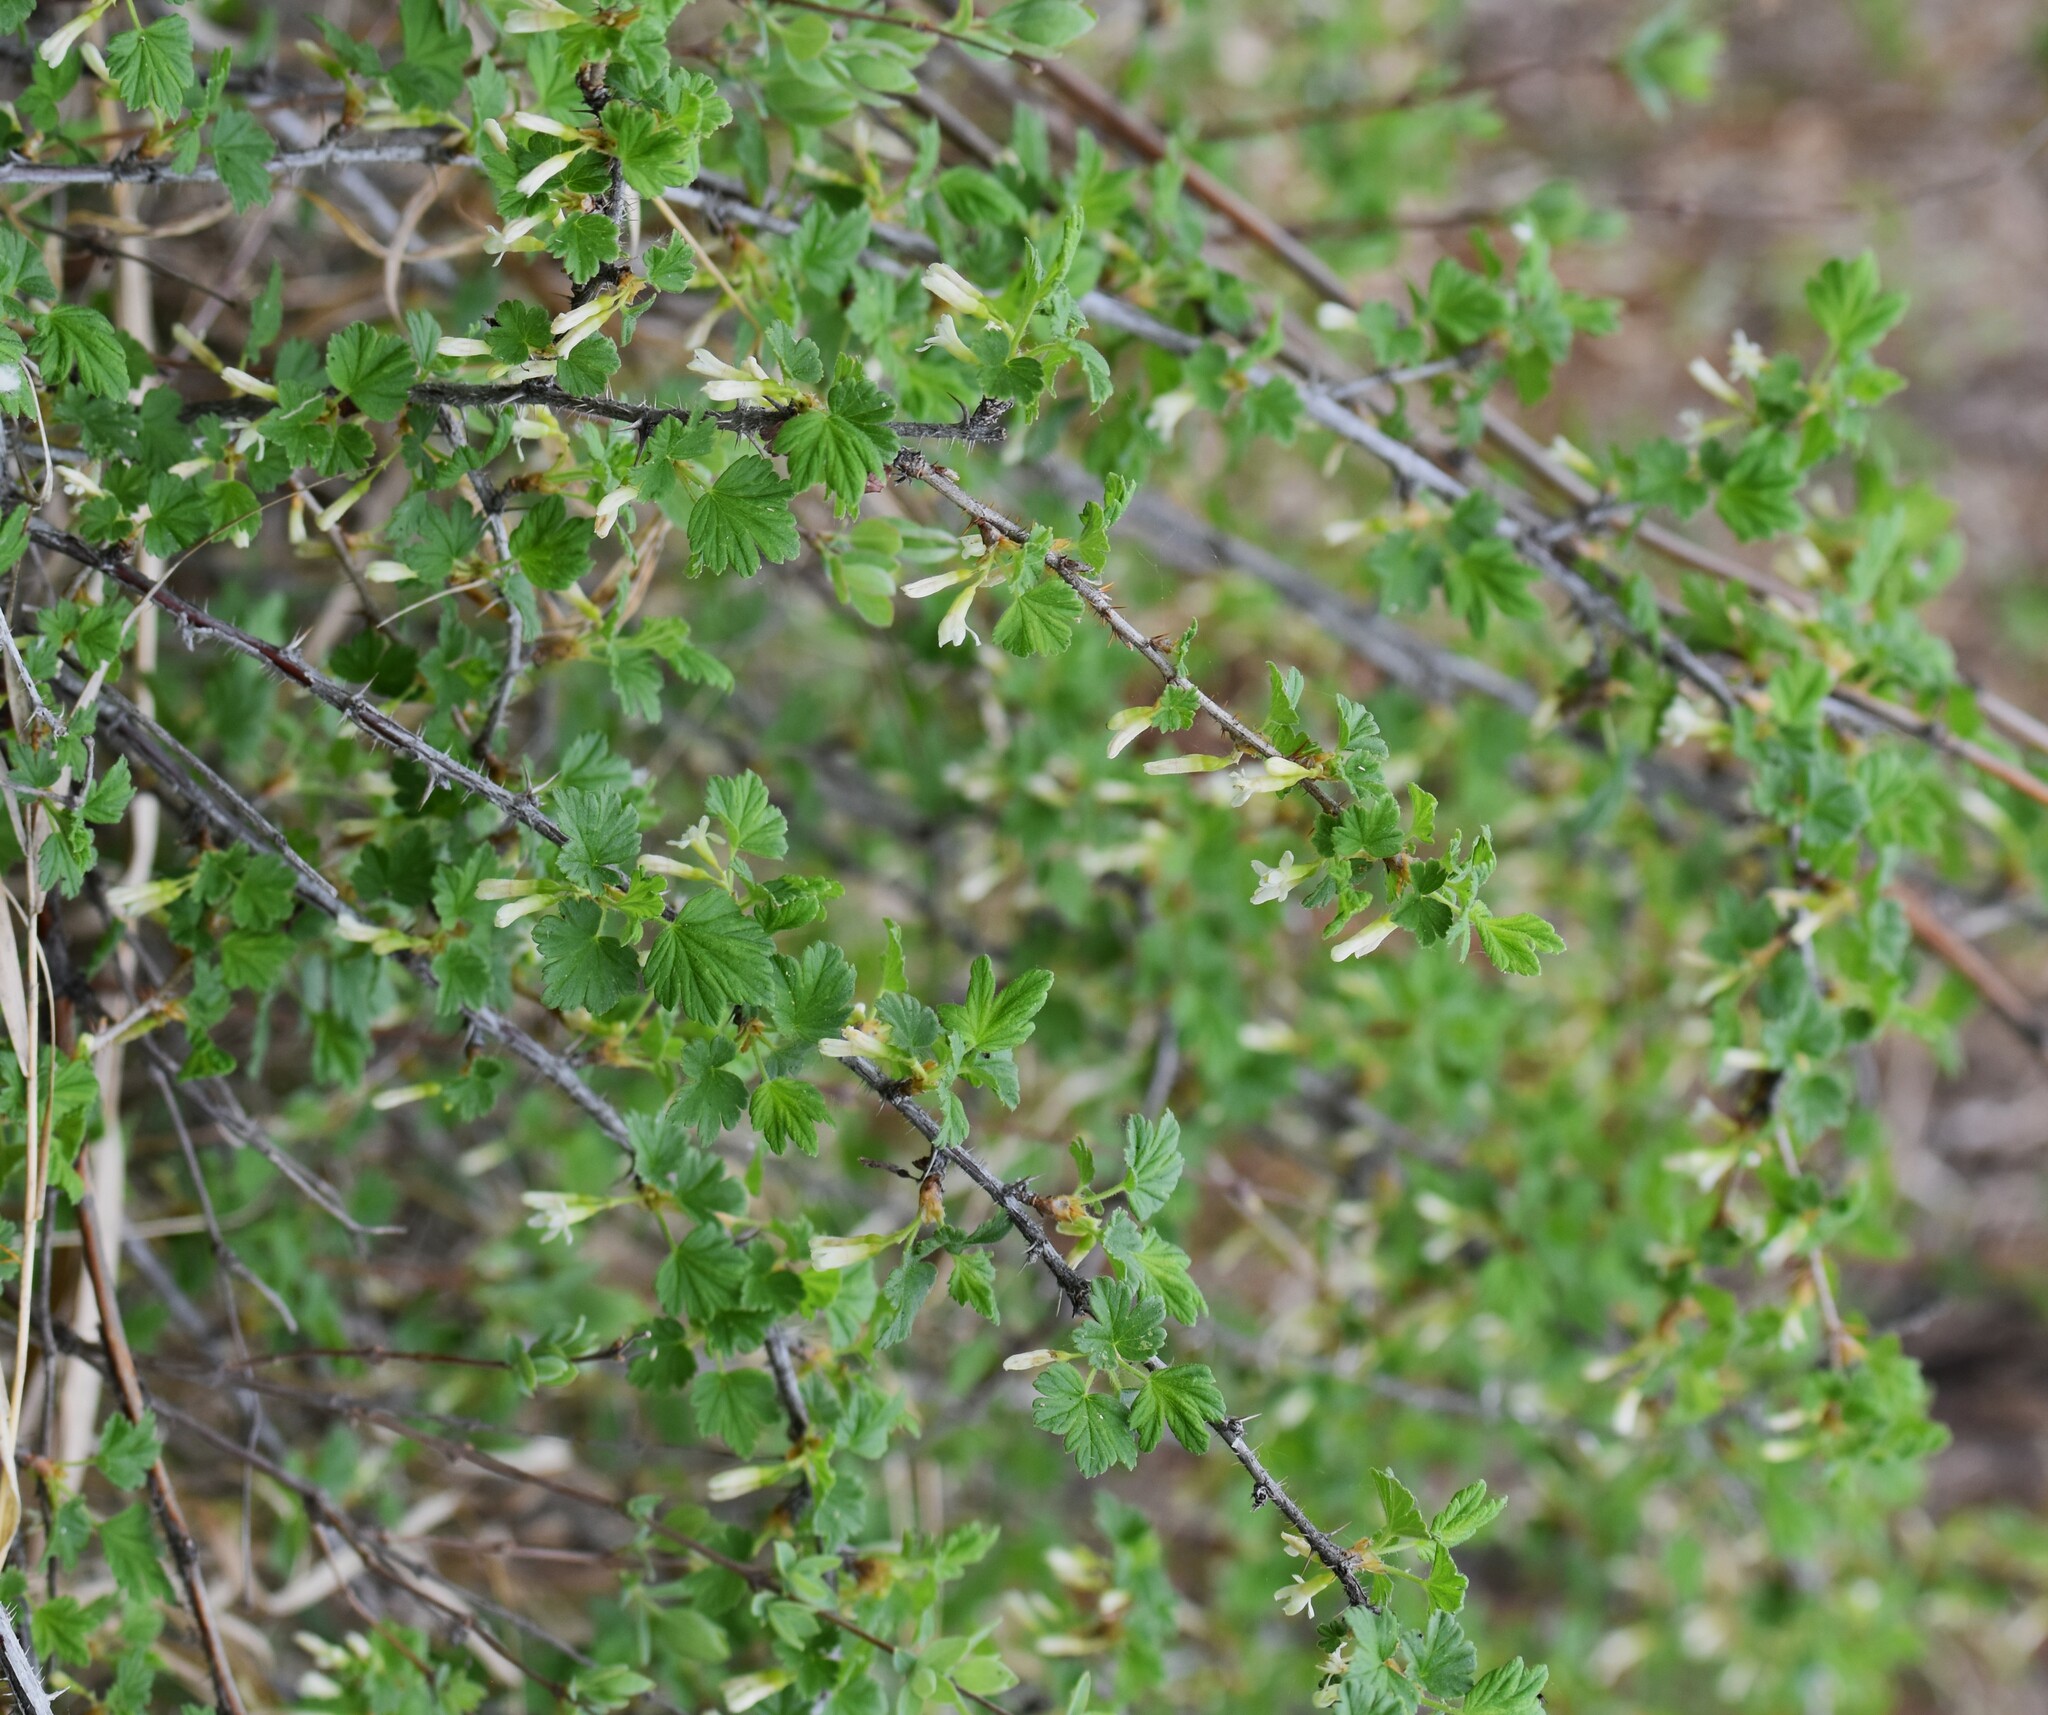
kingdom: Plantae
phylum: Tracheophyta
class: Magnoliopsida
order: Saxifragales
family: Grossulariaceae
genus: Ribes
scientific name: Ribes oxyacanthoides
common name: Northern gooseberry
